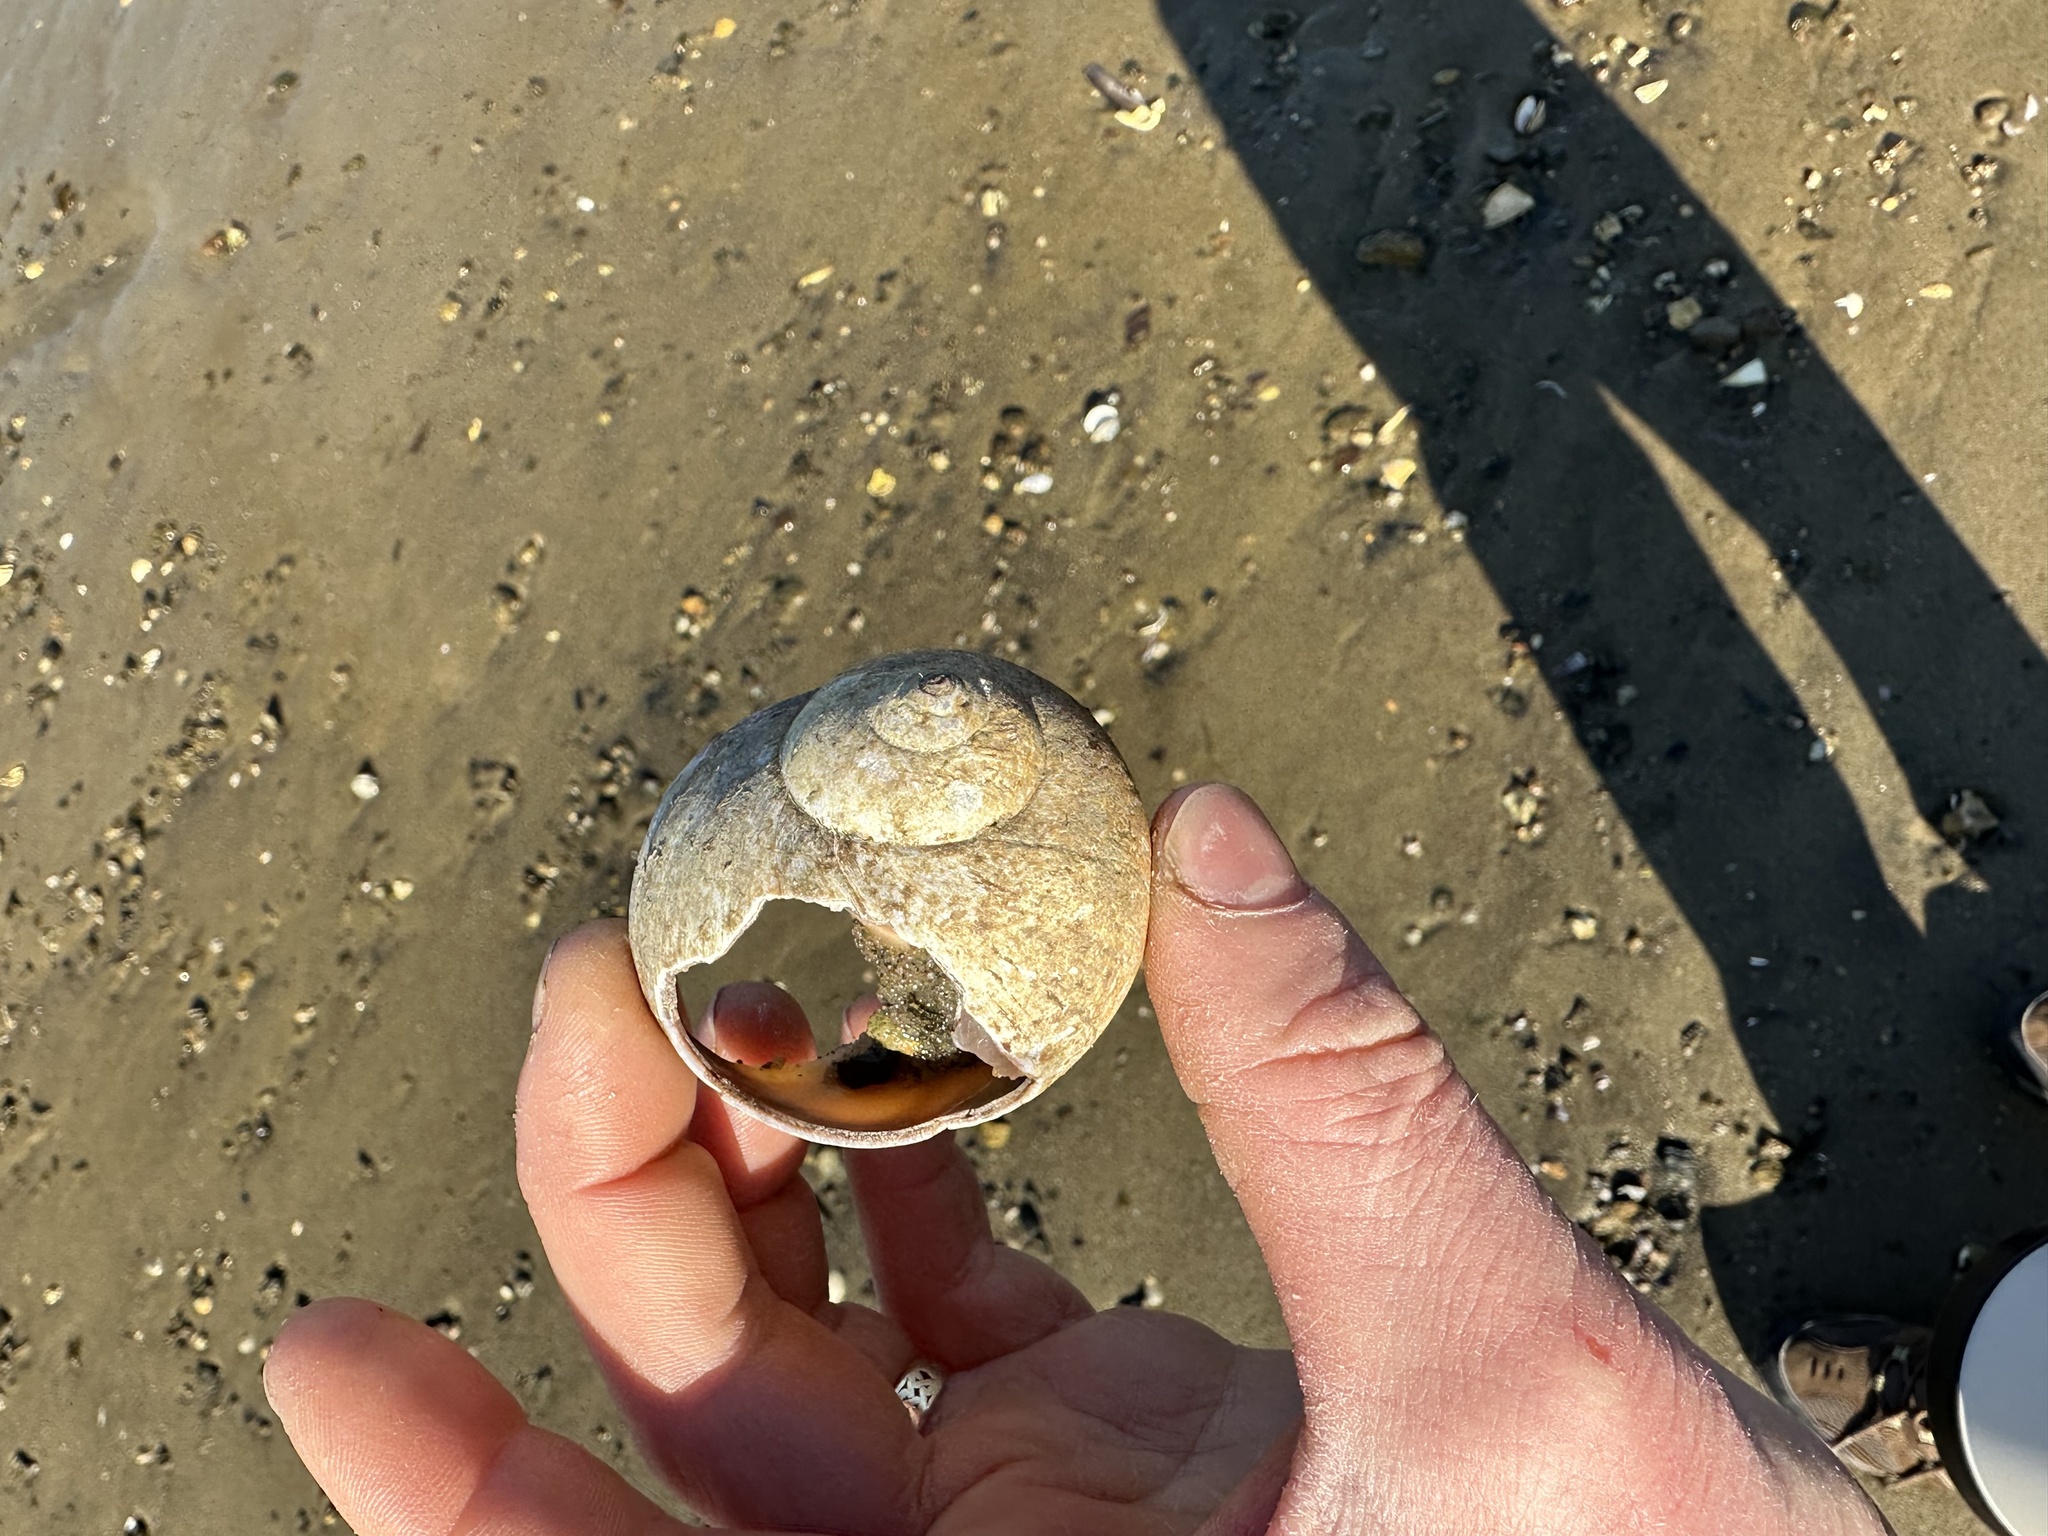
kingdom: Animalia
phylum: Mollusca
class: Gastropoda
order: Littorinimorpha
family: Naticidae
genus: Euspira
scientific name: Euspira heros
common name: Common northern moonsnail
